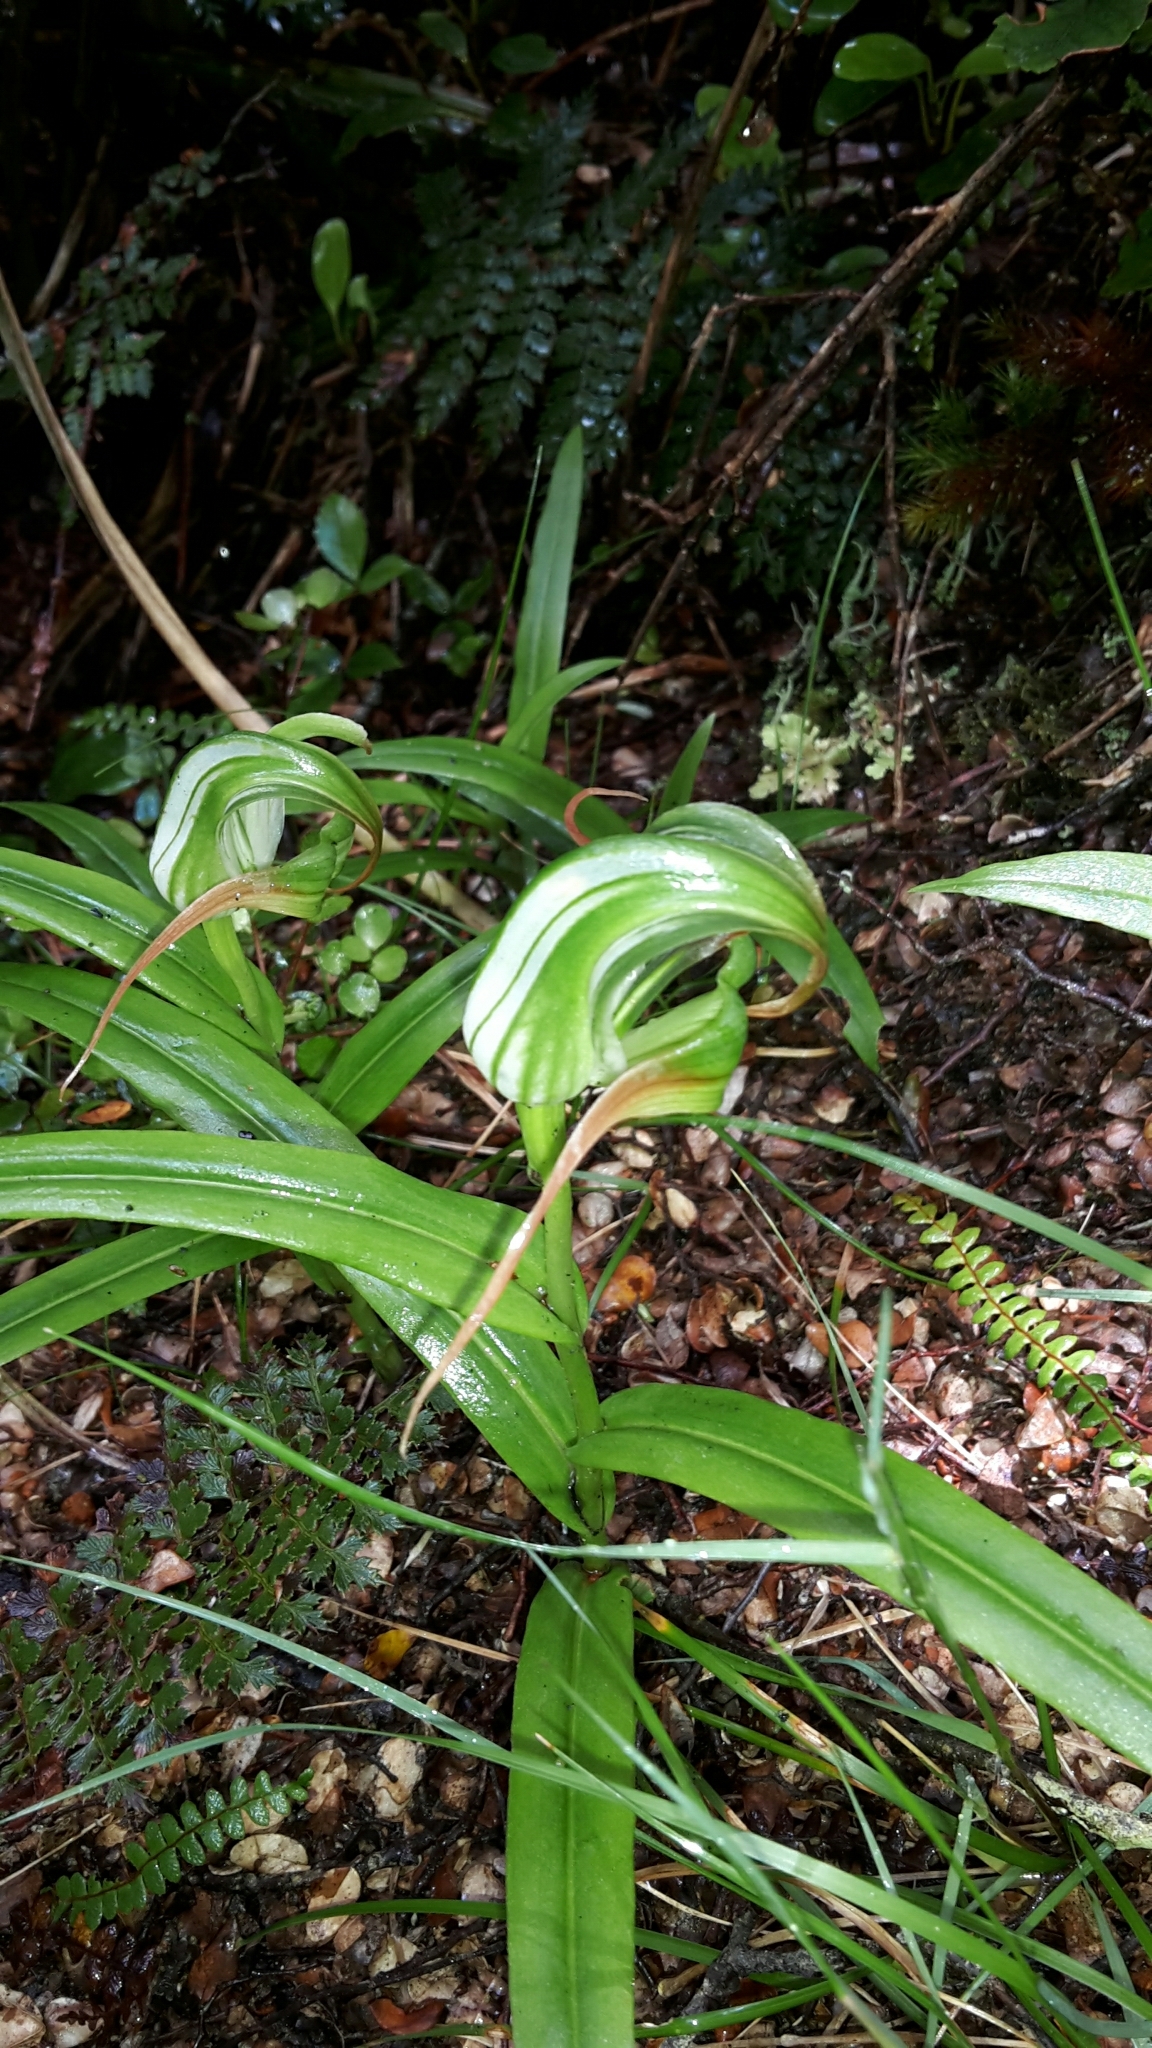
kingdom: Plantae
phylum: Tracheophyta
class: Liliopsida
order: Asparagales
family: Orchidaceae
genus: Pterostylis
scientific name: Pterostylis patens
